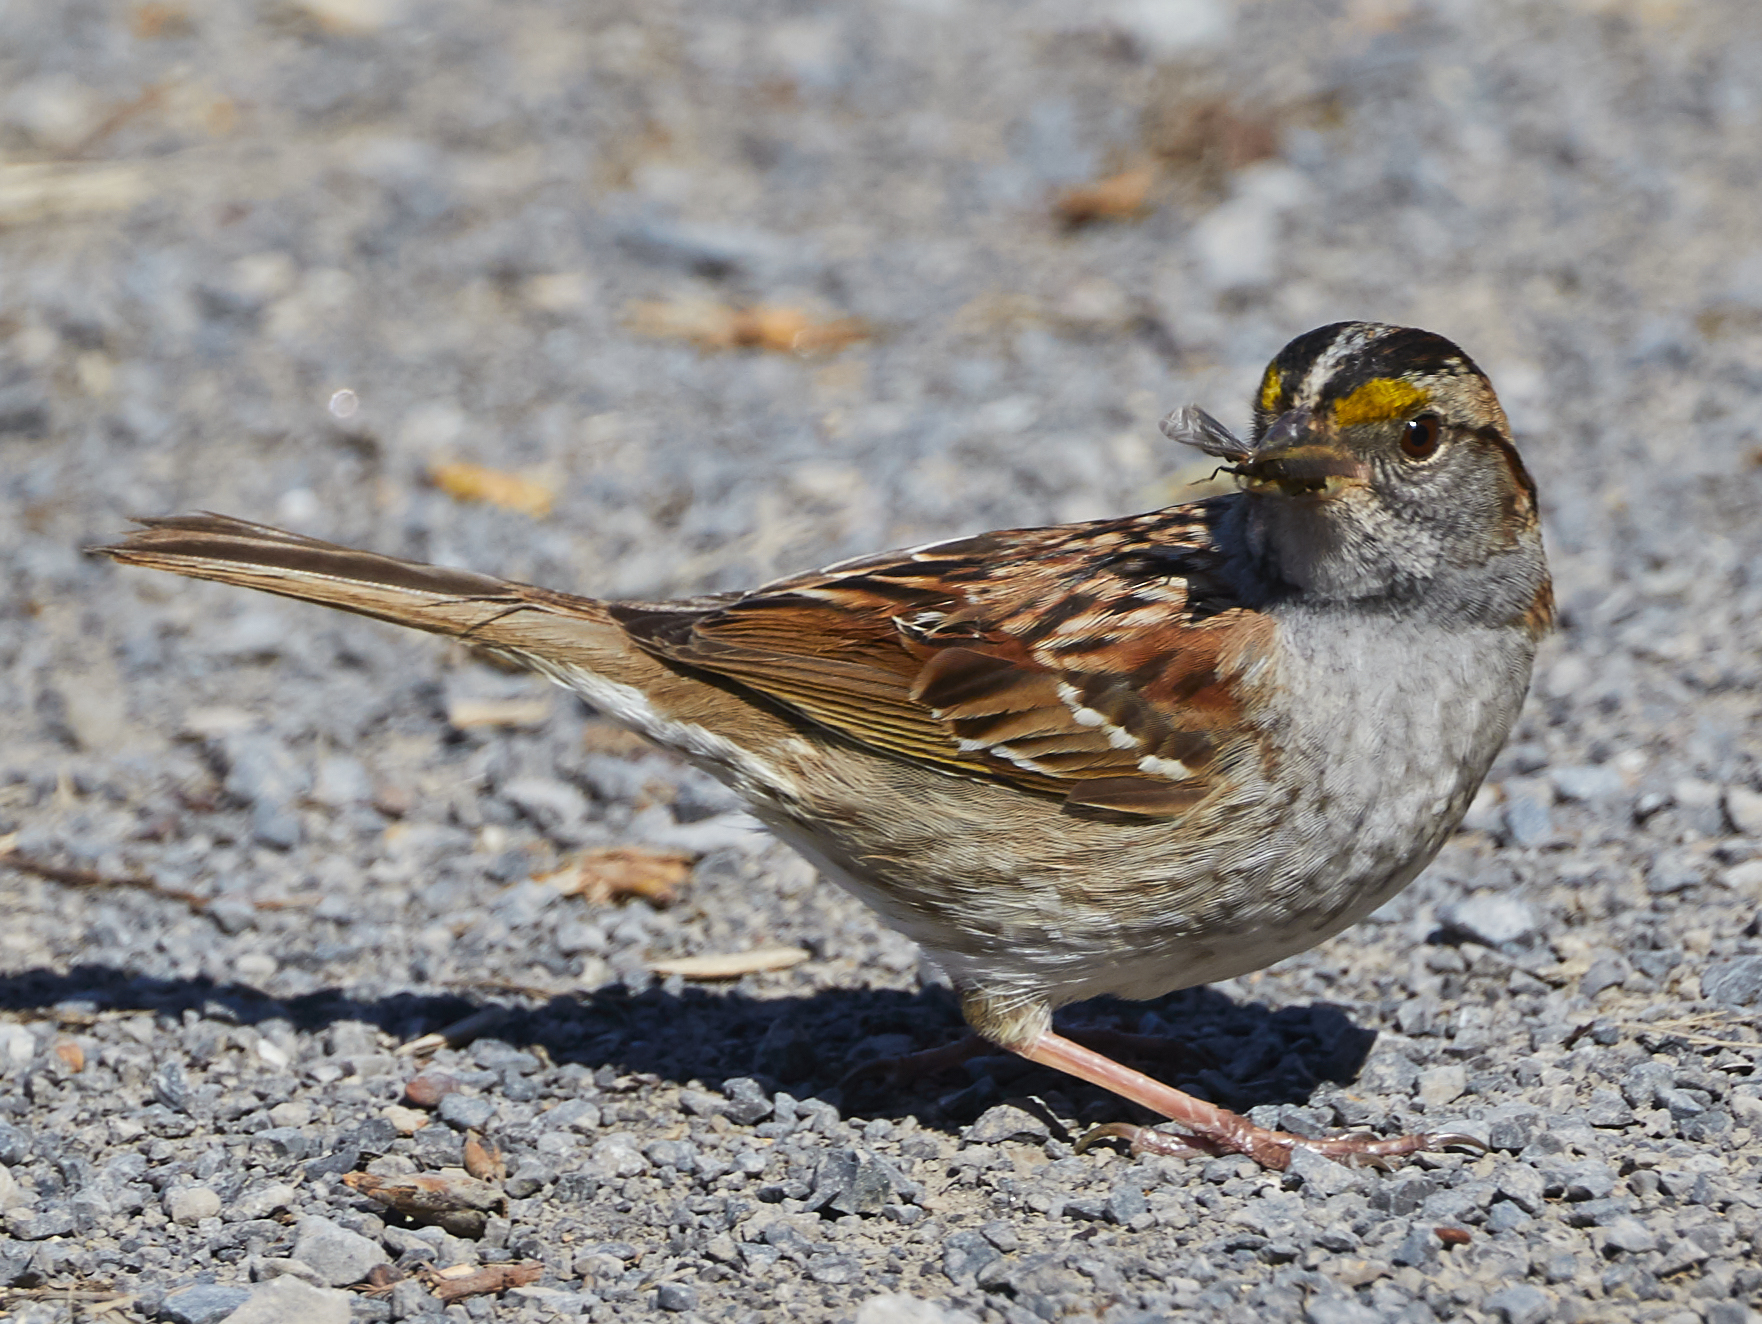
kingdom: Animalia
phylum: Chordata
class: Aves
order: Passeriformes
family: Passerellidae
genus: Zonotrichia
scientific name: Zonotrichia albicollis
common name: White-throated sparrow
